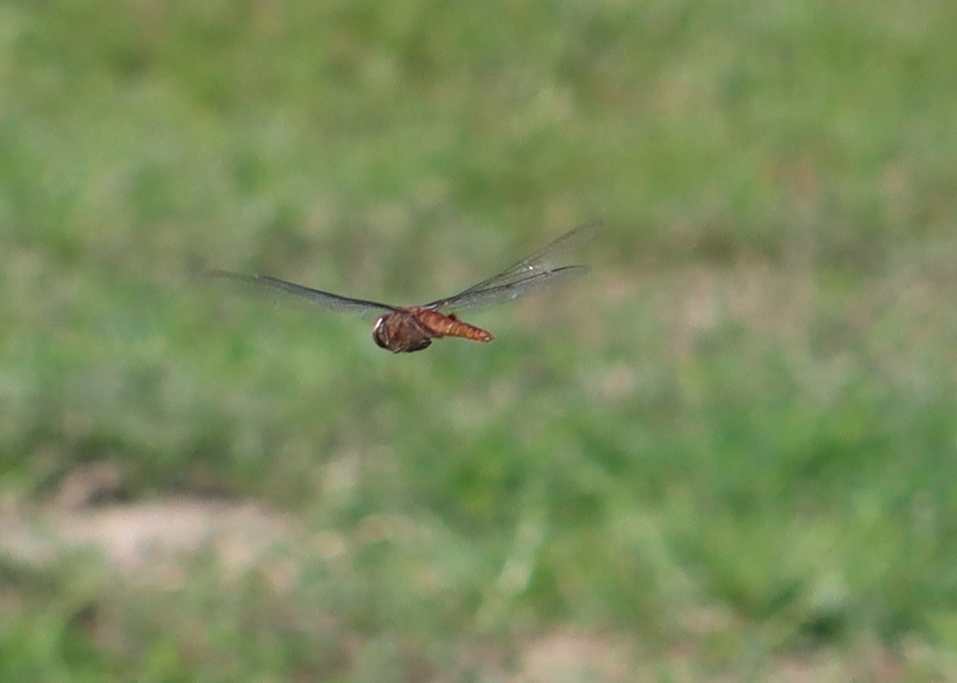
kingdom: Animalia
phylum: Arthropoda
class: Insecta
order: Odonata
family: Libellulidae
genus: Pantala
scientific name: Pantala hymenaea
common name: Spot-winged glider
